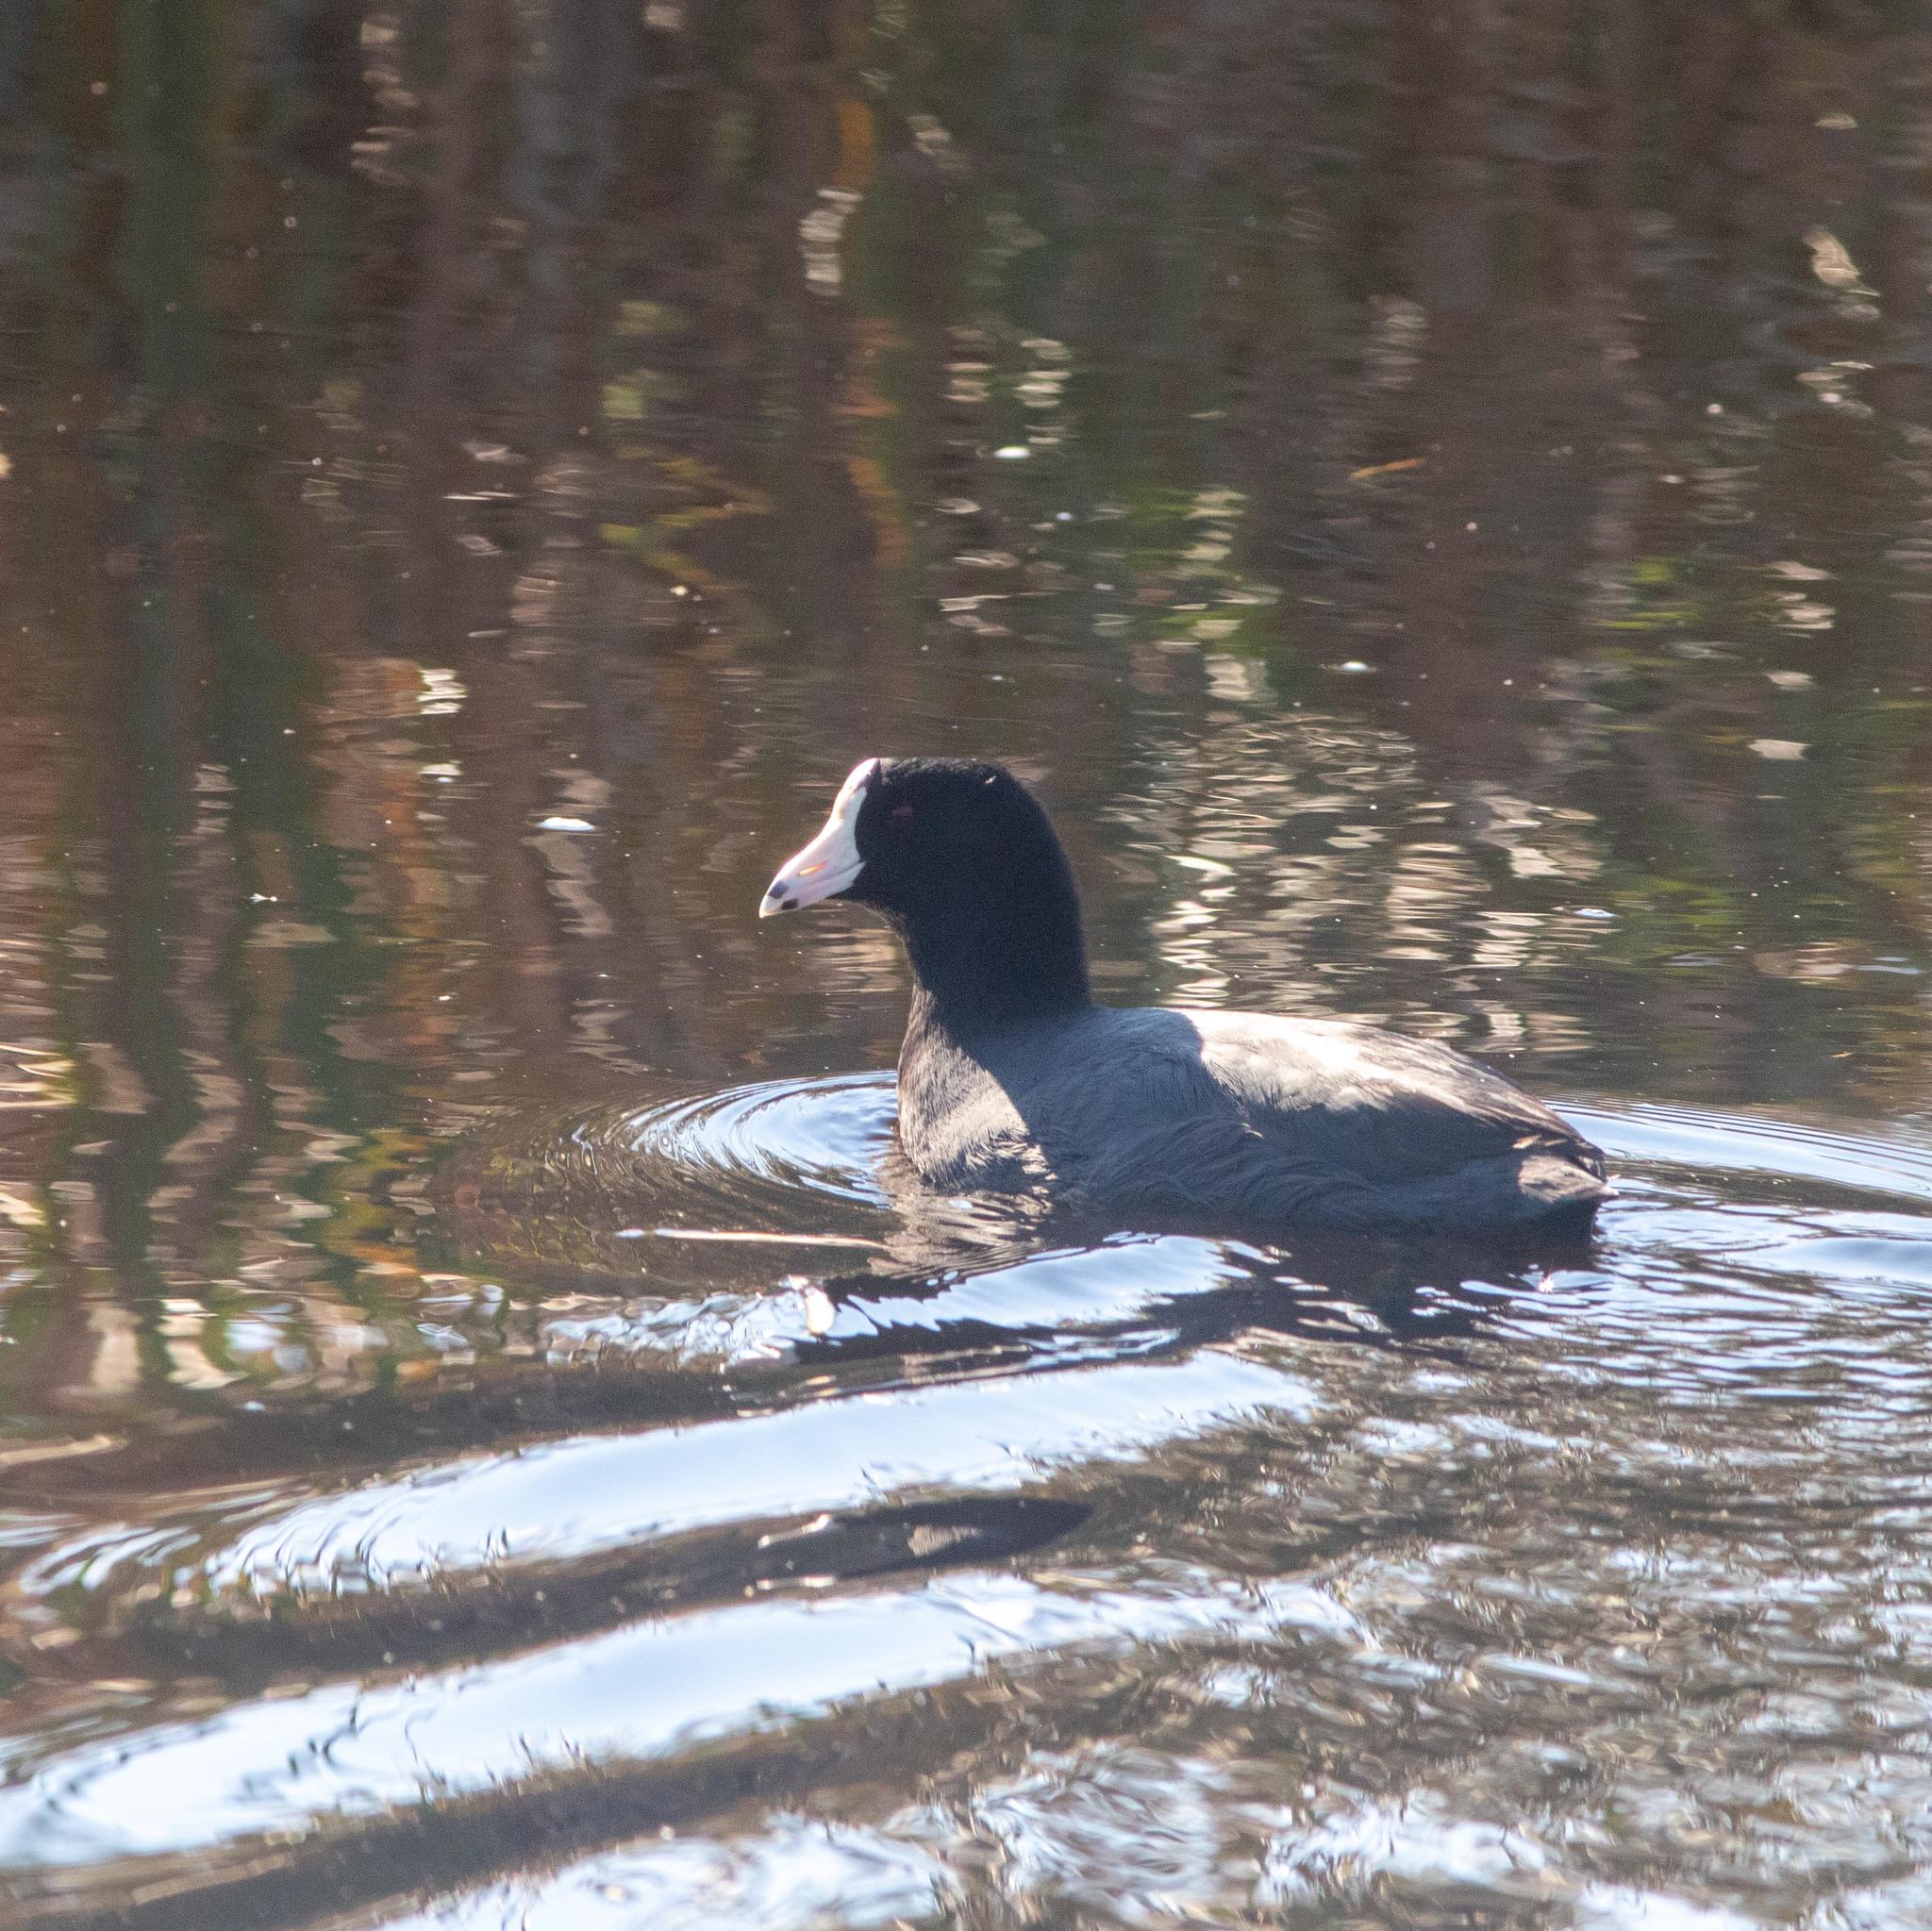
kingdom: Animalia
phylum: Chordata
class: Aves
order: Gruiformes
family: Rallidae
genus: Fulica
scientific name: Fulica americana
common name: American coot
